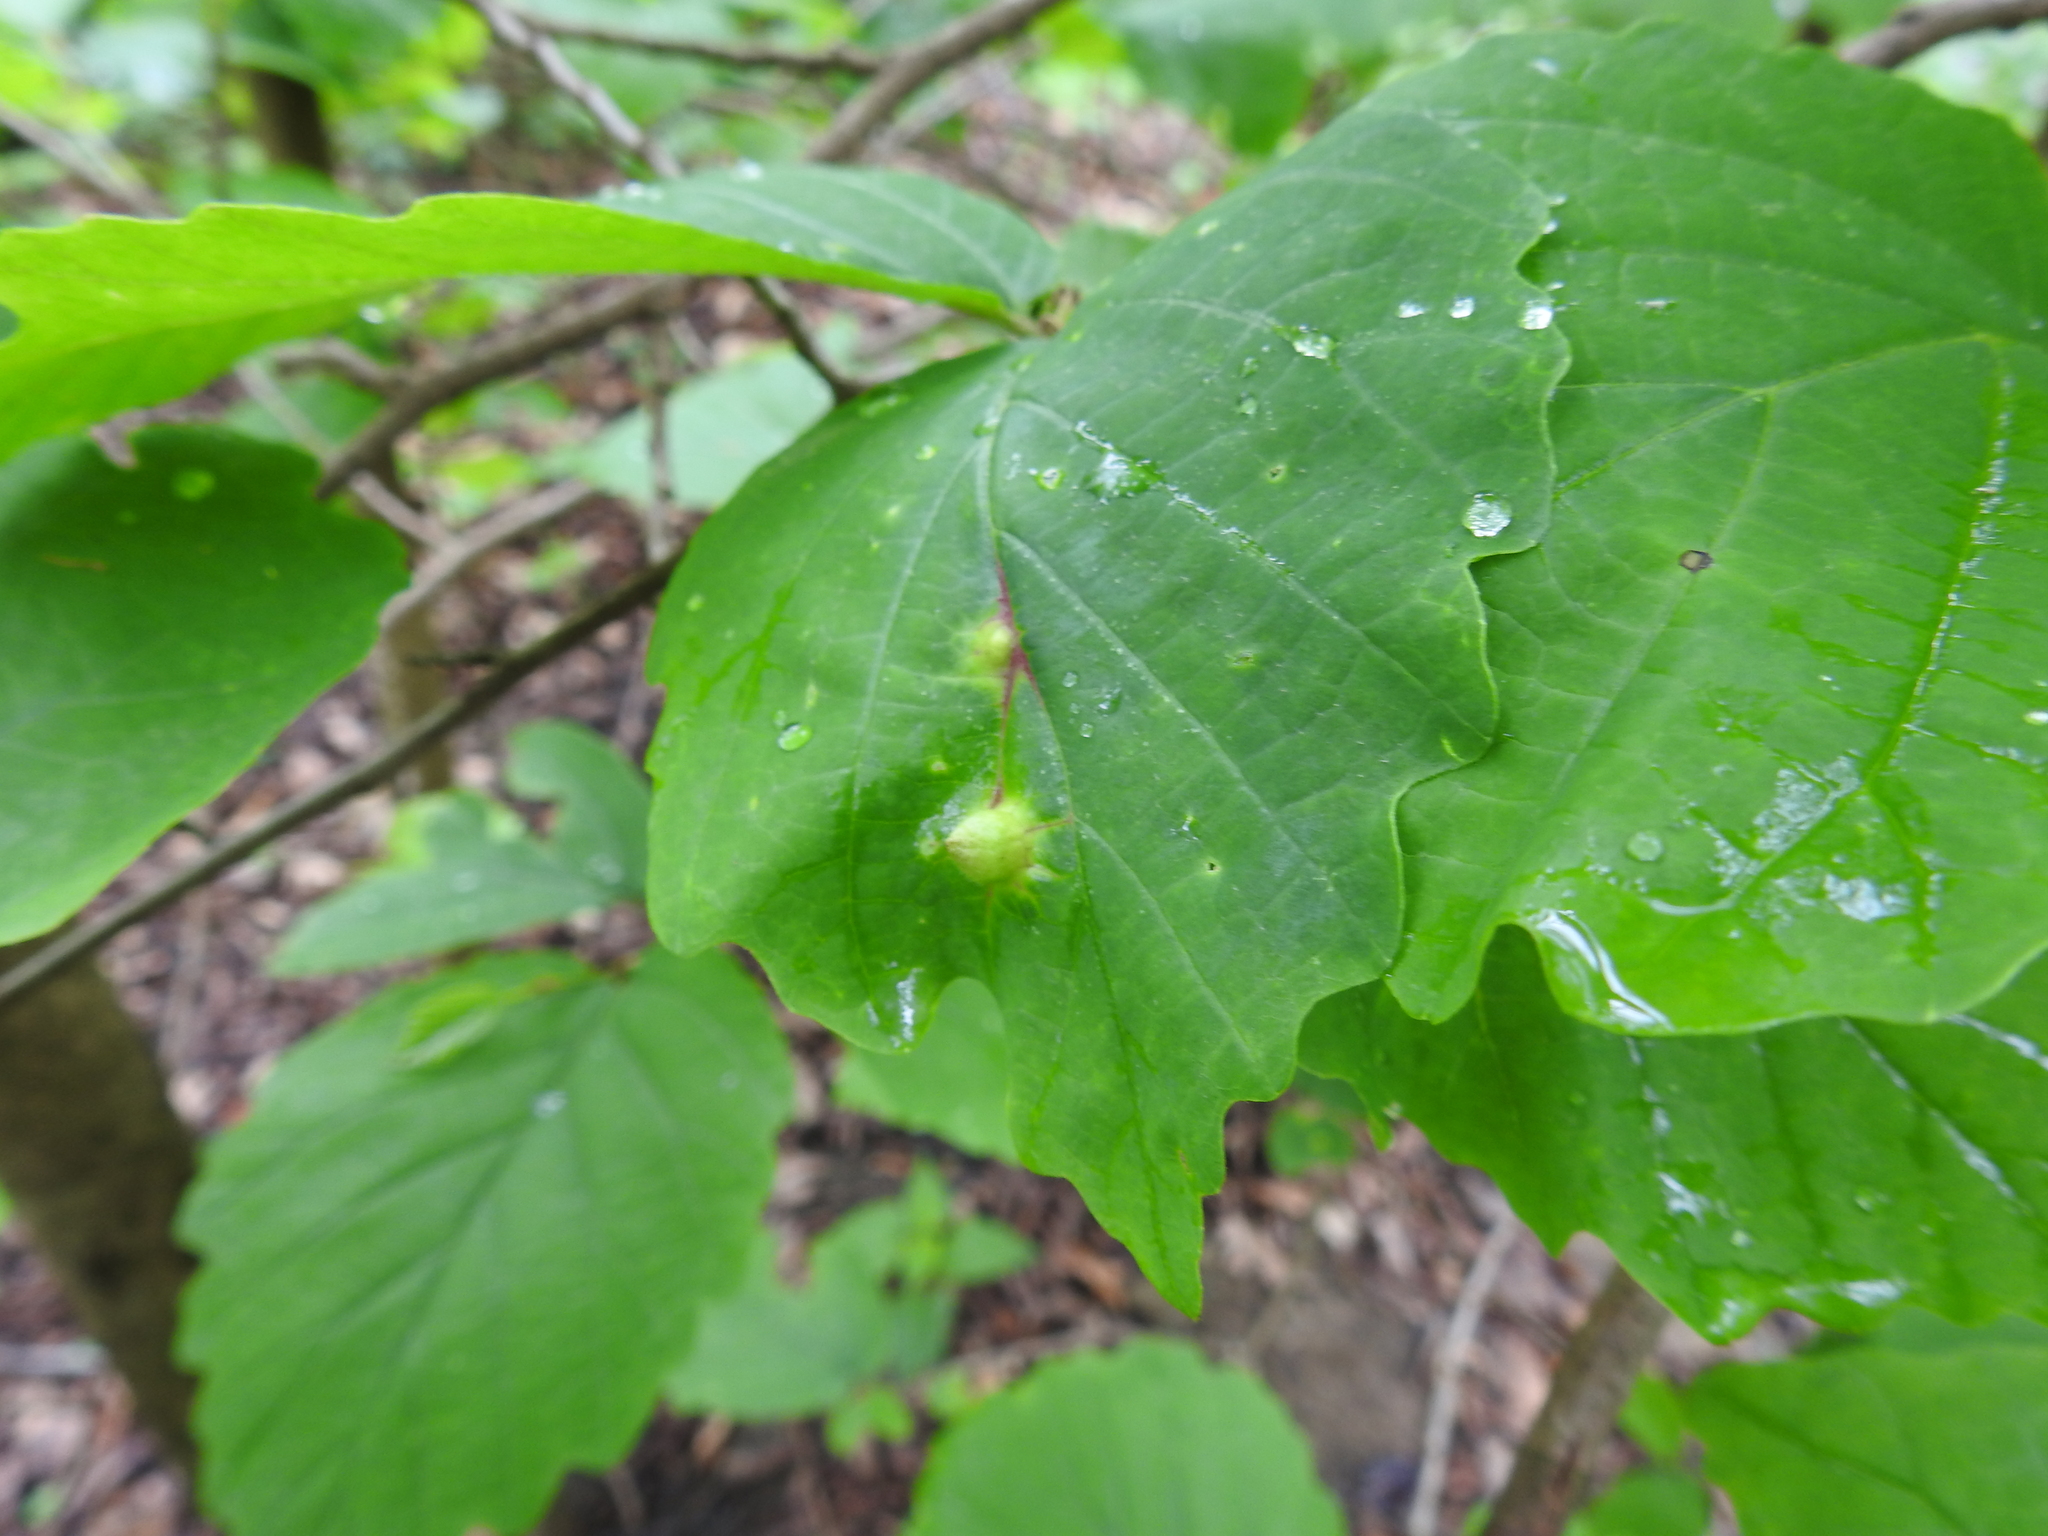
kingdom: Animalia
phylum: Arthropoda
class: Insecta
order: Hemiptera
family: Aphididae
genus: Hormaphis
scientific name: Hormaphis hamamelidis
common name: Witch-hazel cone gall aphid
